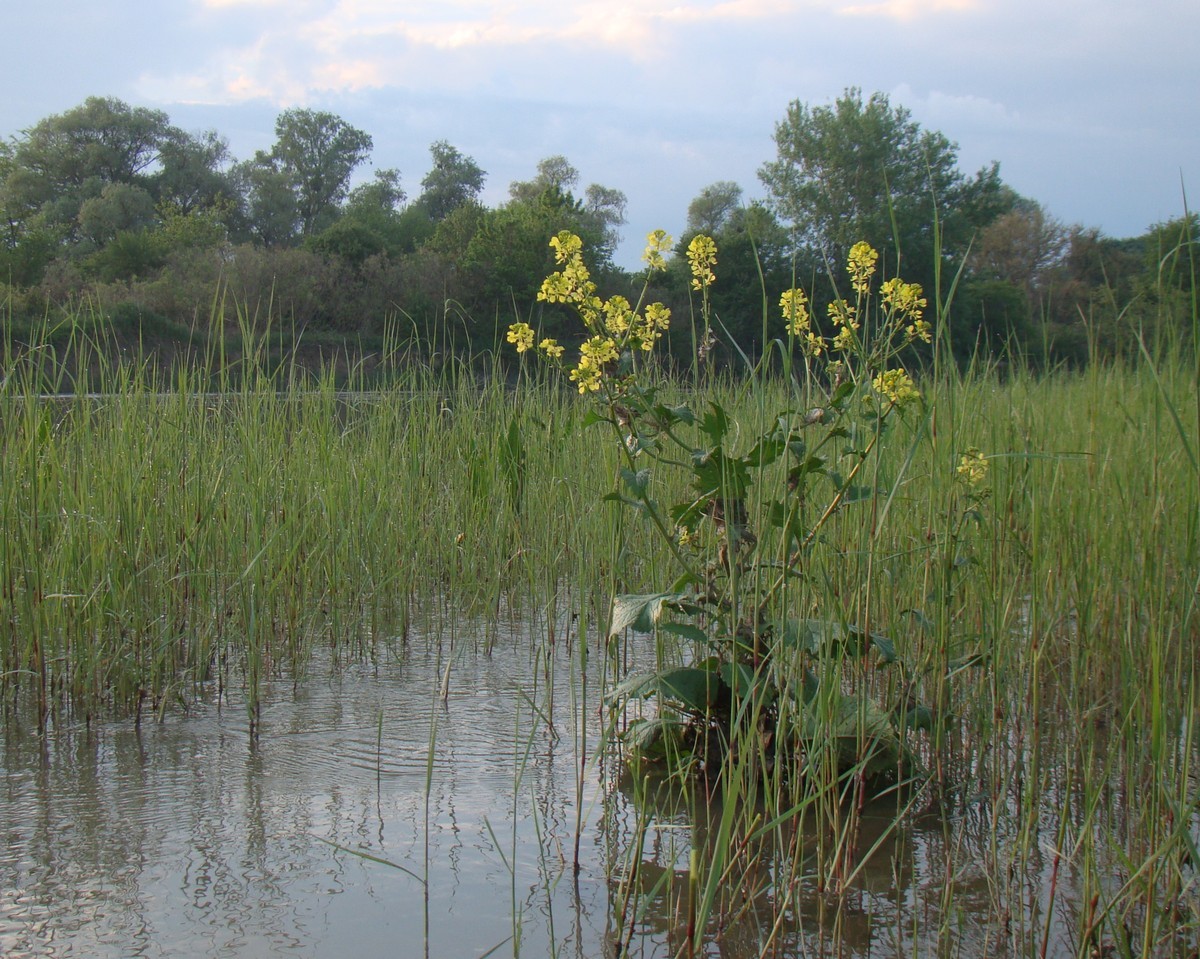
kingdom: Plantae
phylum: Tracheophyta
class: Magnoliopsida
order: Brassicales
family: Brassicaceae
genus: Sinapis
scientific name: Sinapis arvensis
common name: Charlock
